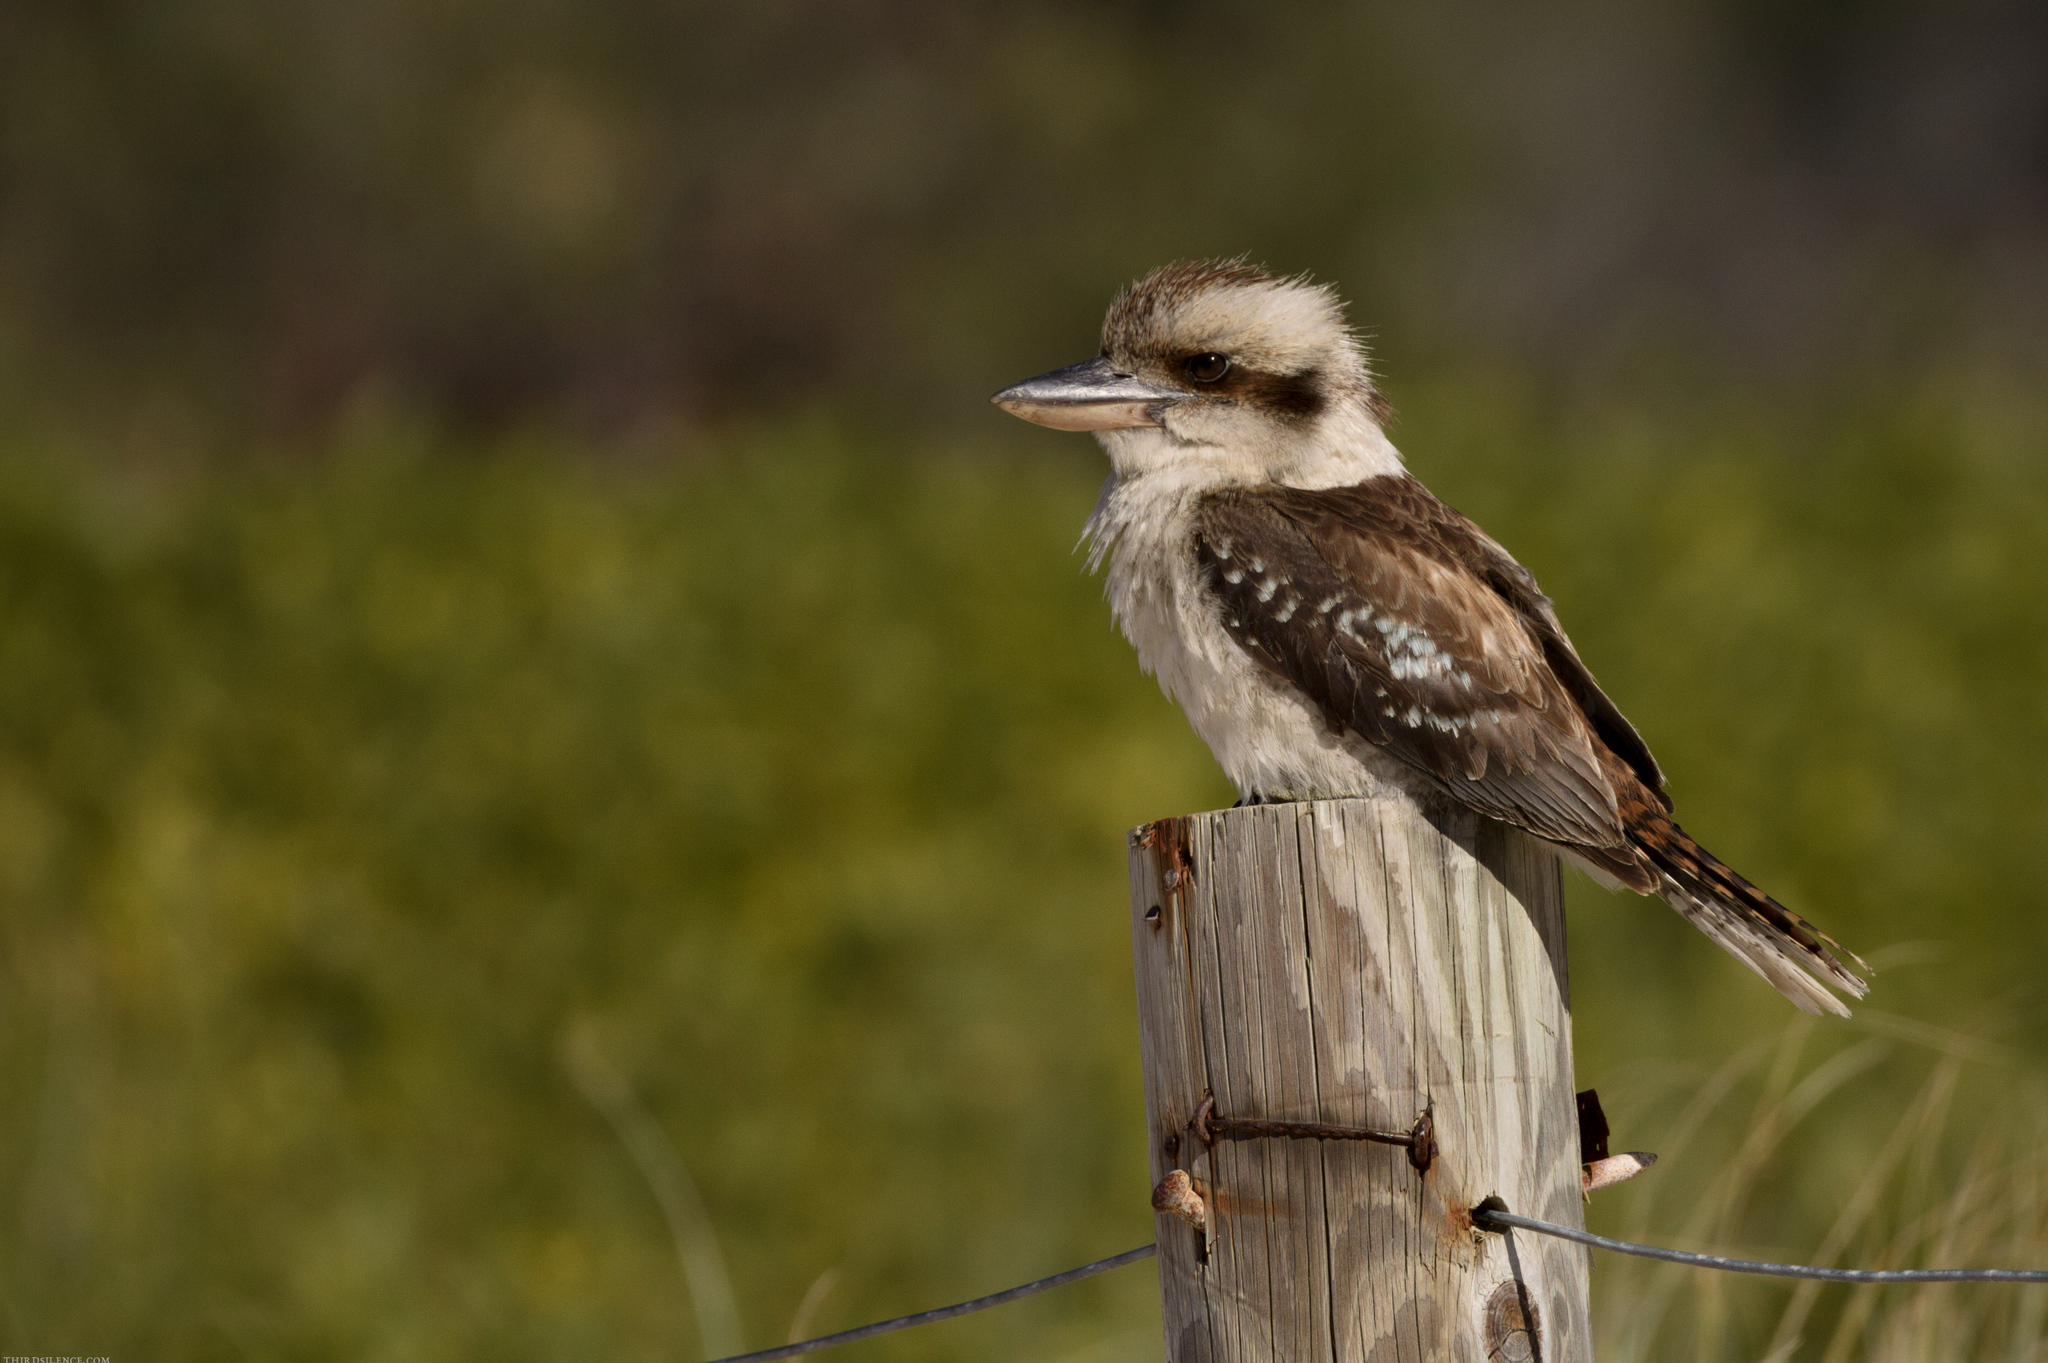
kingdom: Animalia
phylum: Chordata
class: Aves
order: Coraciiformes
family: Alcedinidae
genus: Dacelo
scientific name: Dacelo novaeguineae
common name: Laughing kookaburra
